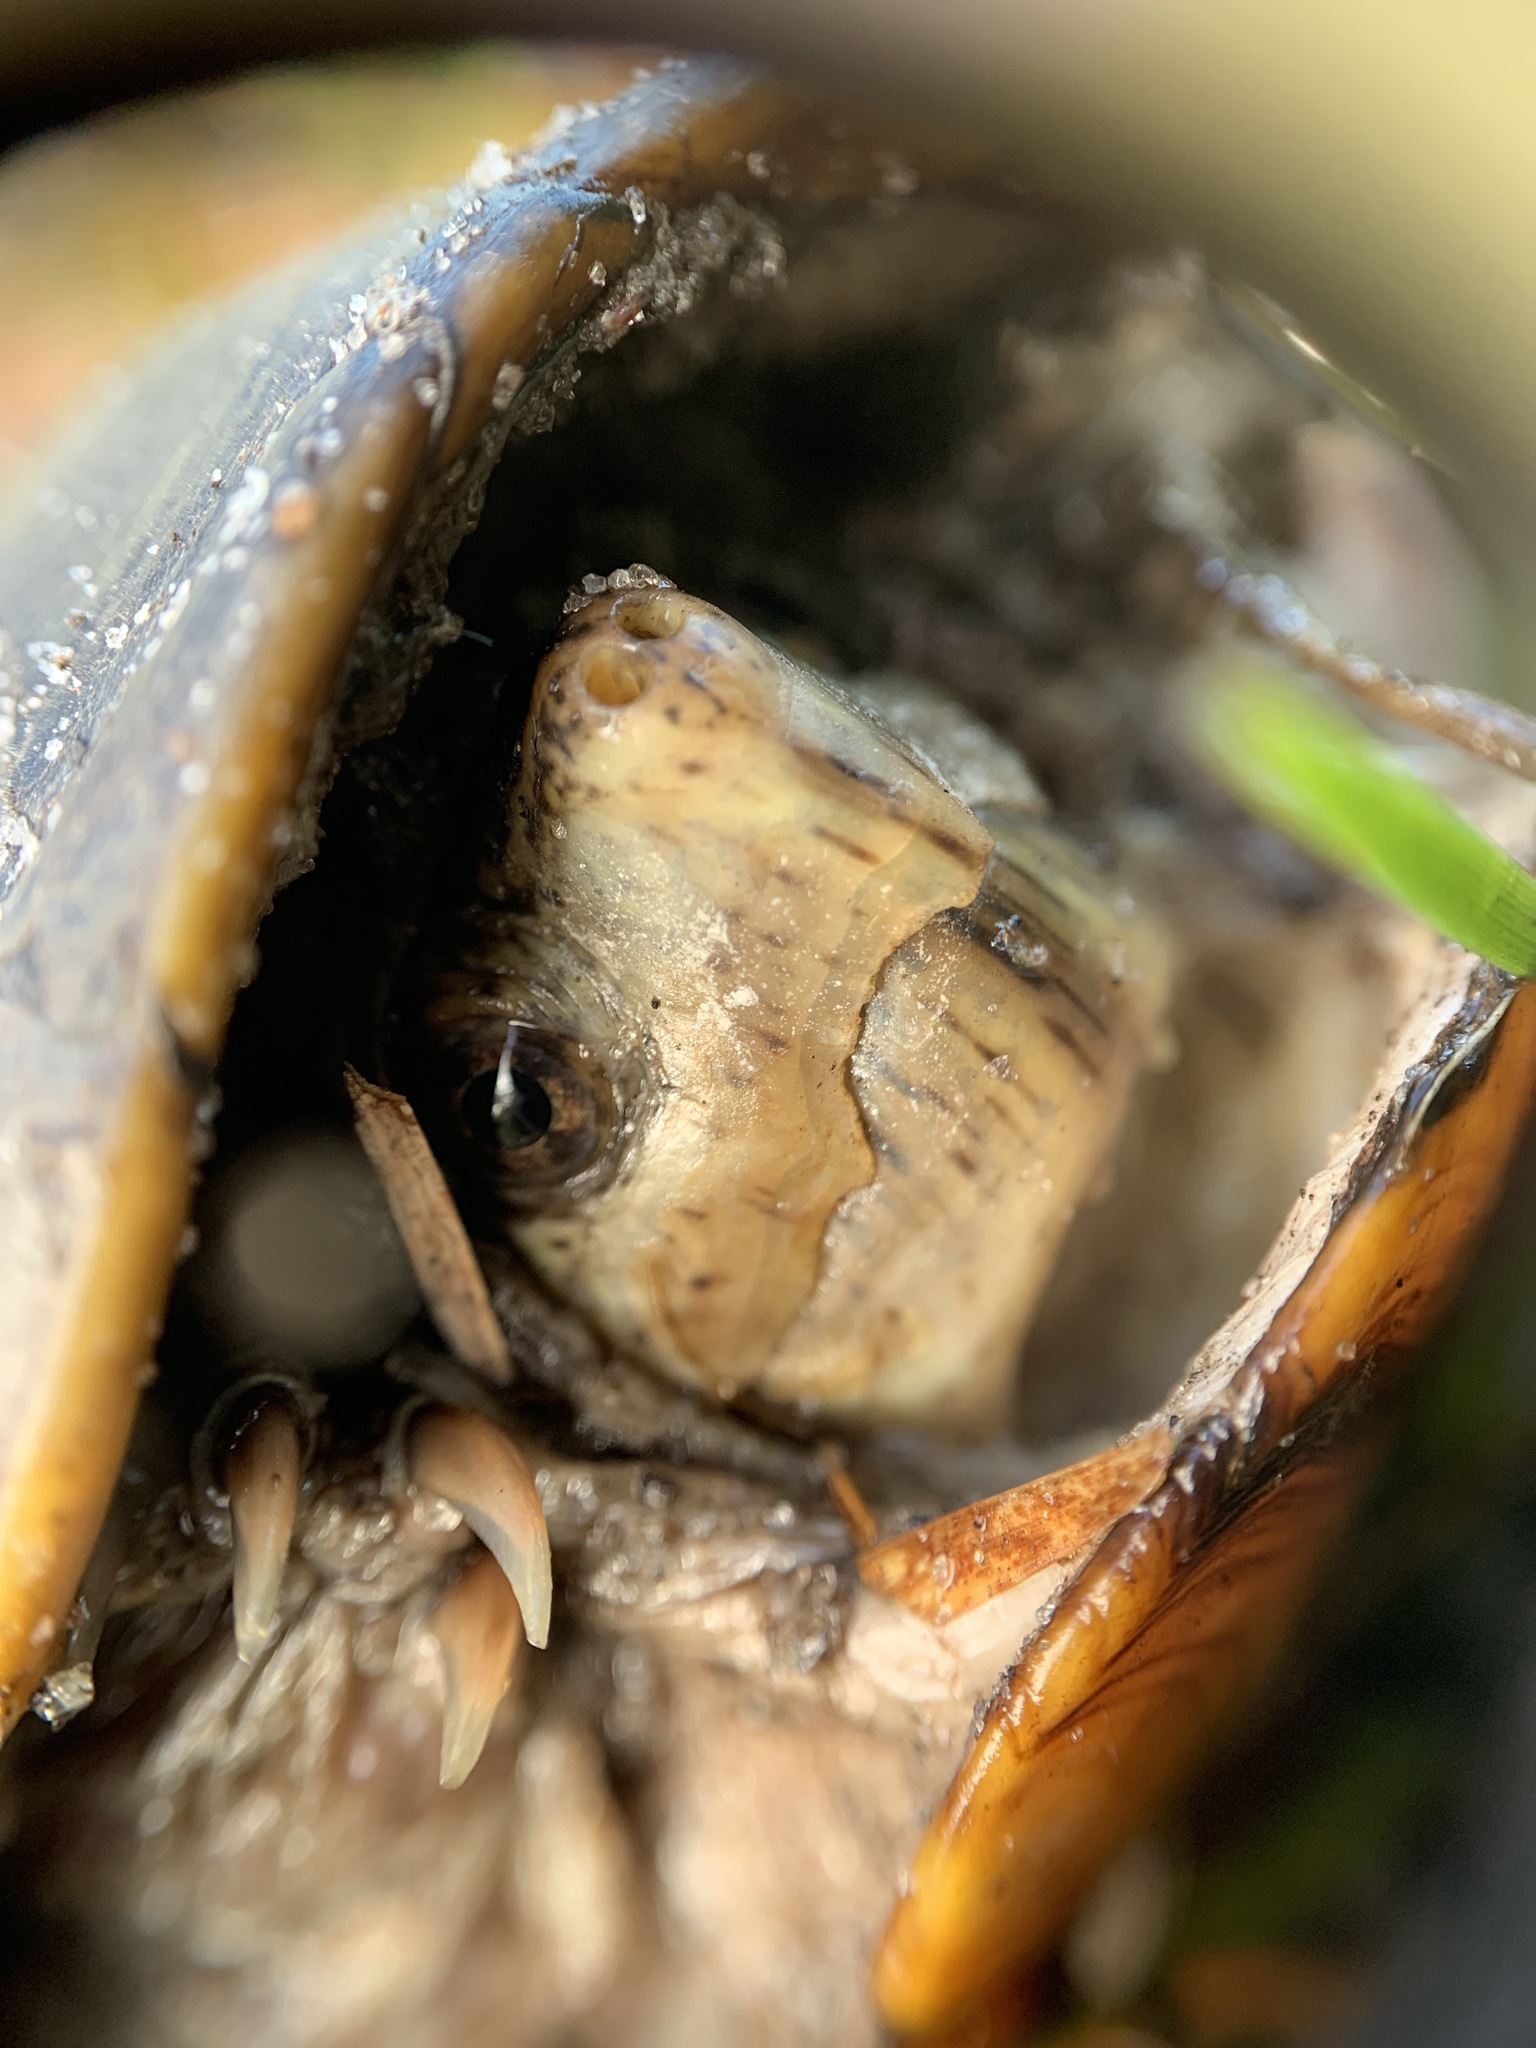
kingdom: Animalia
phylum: Chordata
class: Testudines
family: Kinosternidae
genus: Kinosternon
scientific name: Kinosternon steindachneri
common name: Florida mud turtle
